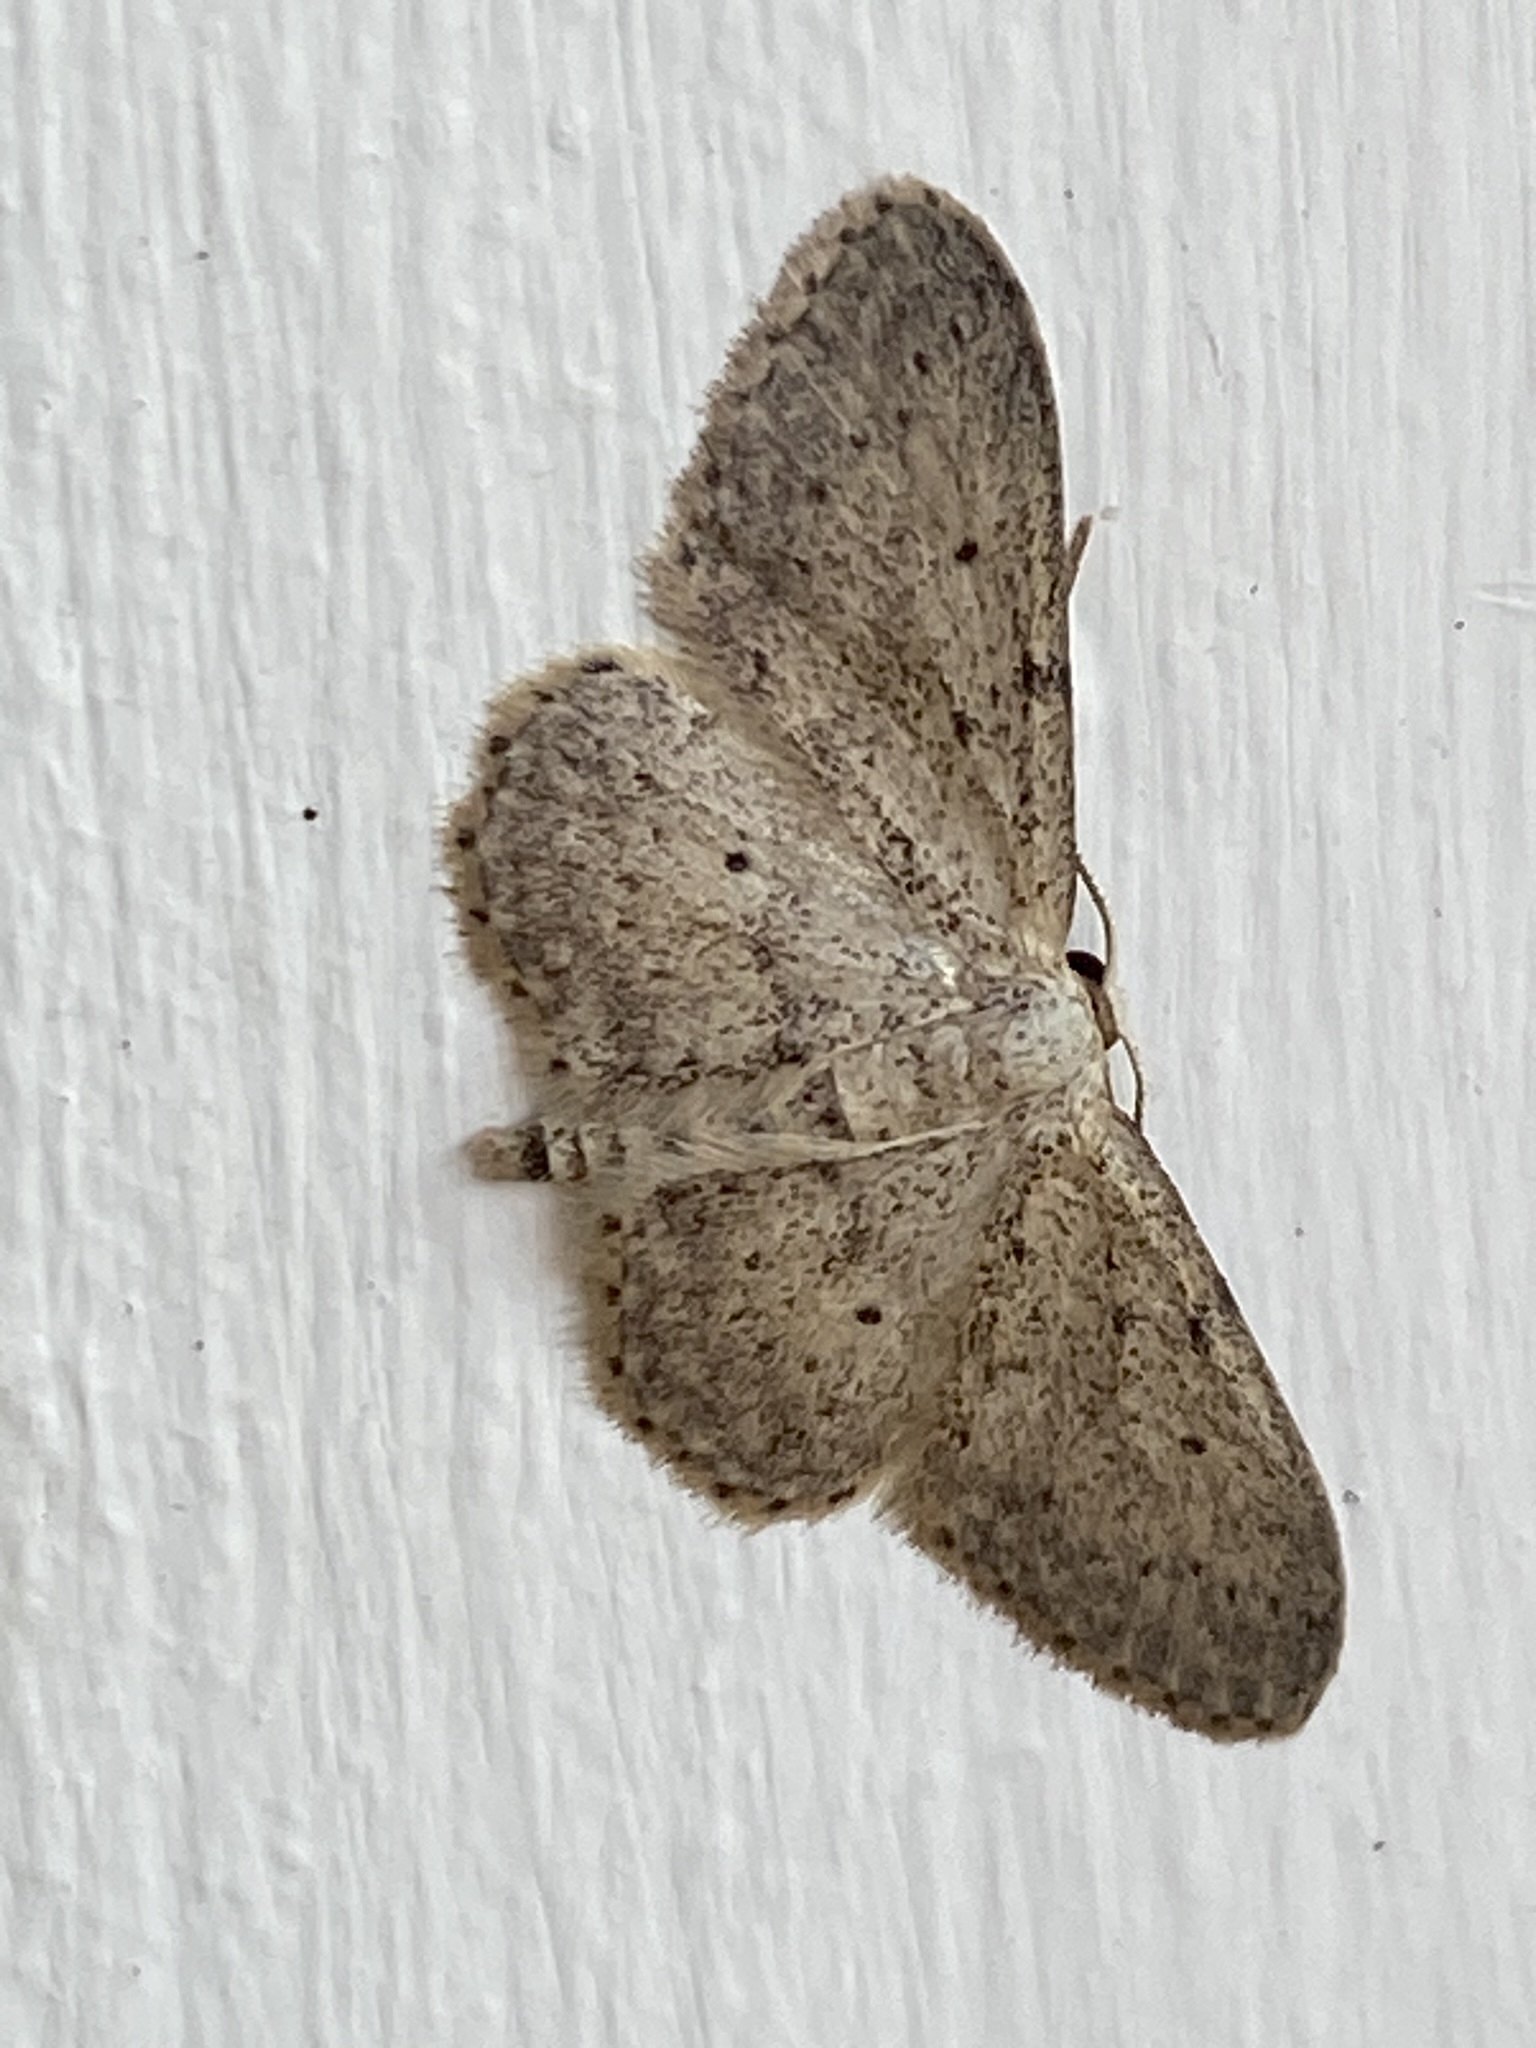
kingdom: Animalia
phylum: Arthropoda
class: Insecta
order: Lepidoptera
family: Geometridae
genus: Idaea
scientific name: Idaea seriata
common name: Small dusty wave
